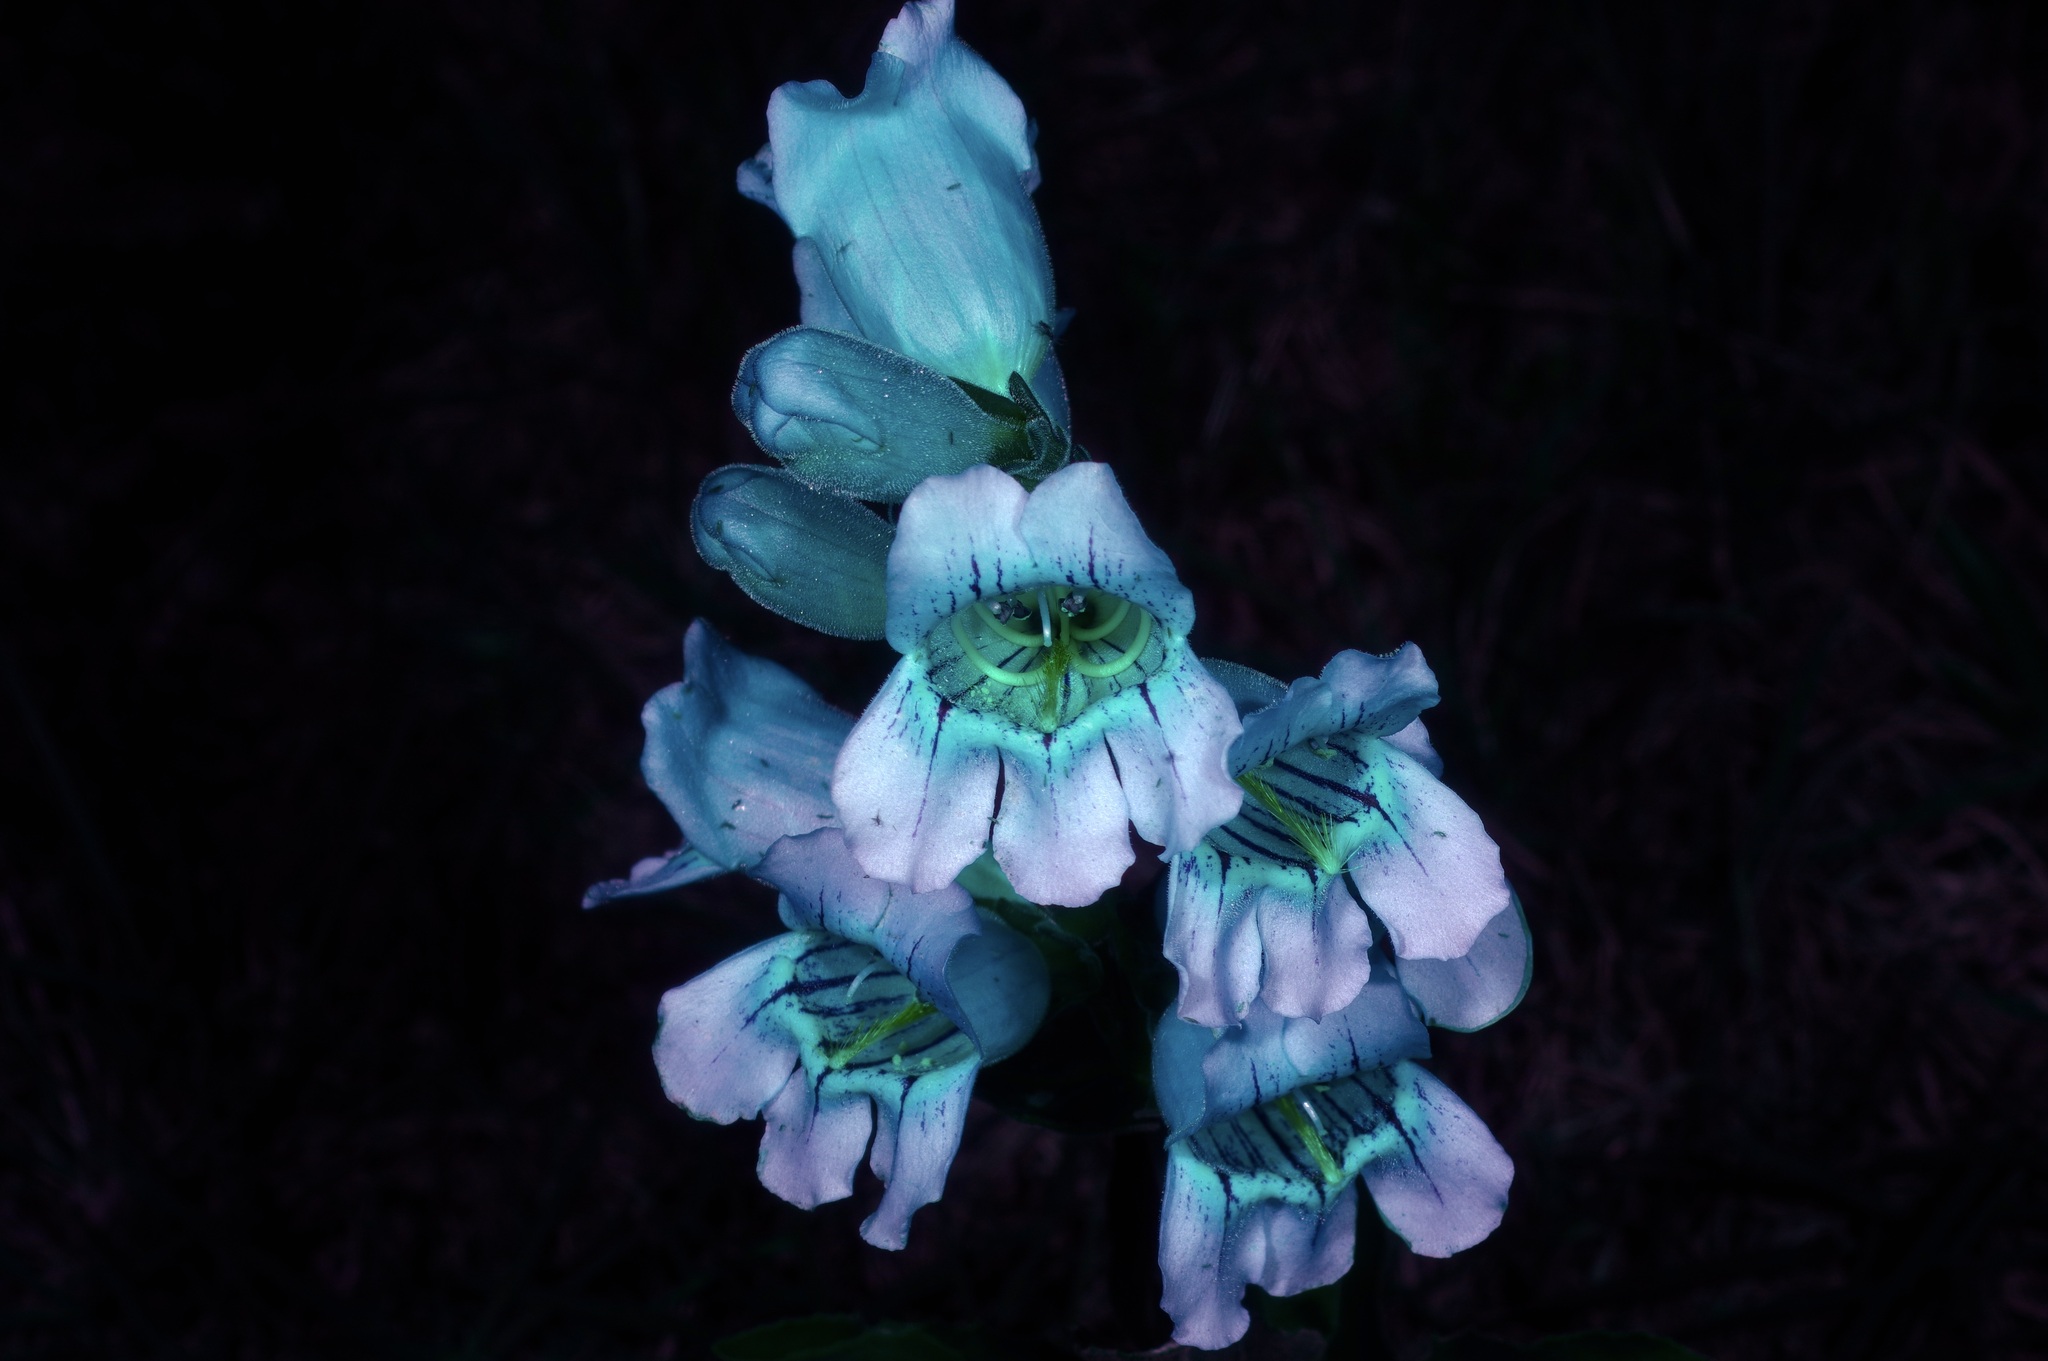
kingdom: Plantae
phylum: Tracheophyta
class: Magnoliopsida
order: Lamiales
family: Plantaginaceae
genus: Penstemon
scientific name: Penstemon cobaea
